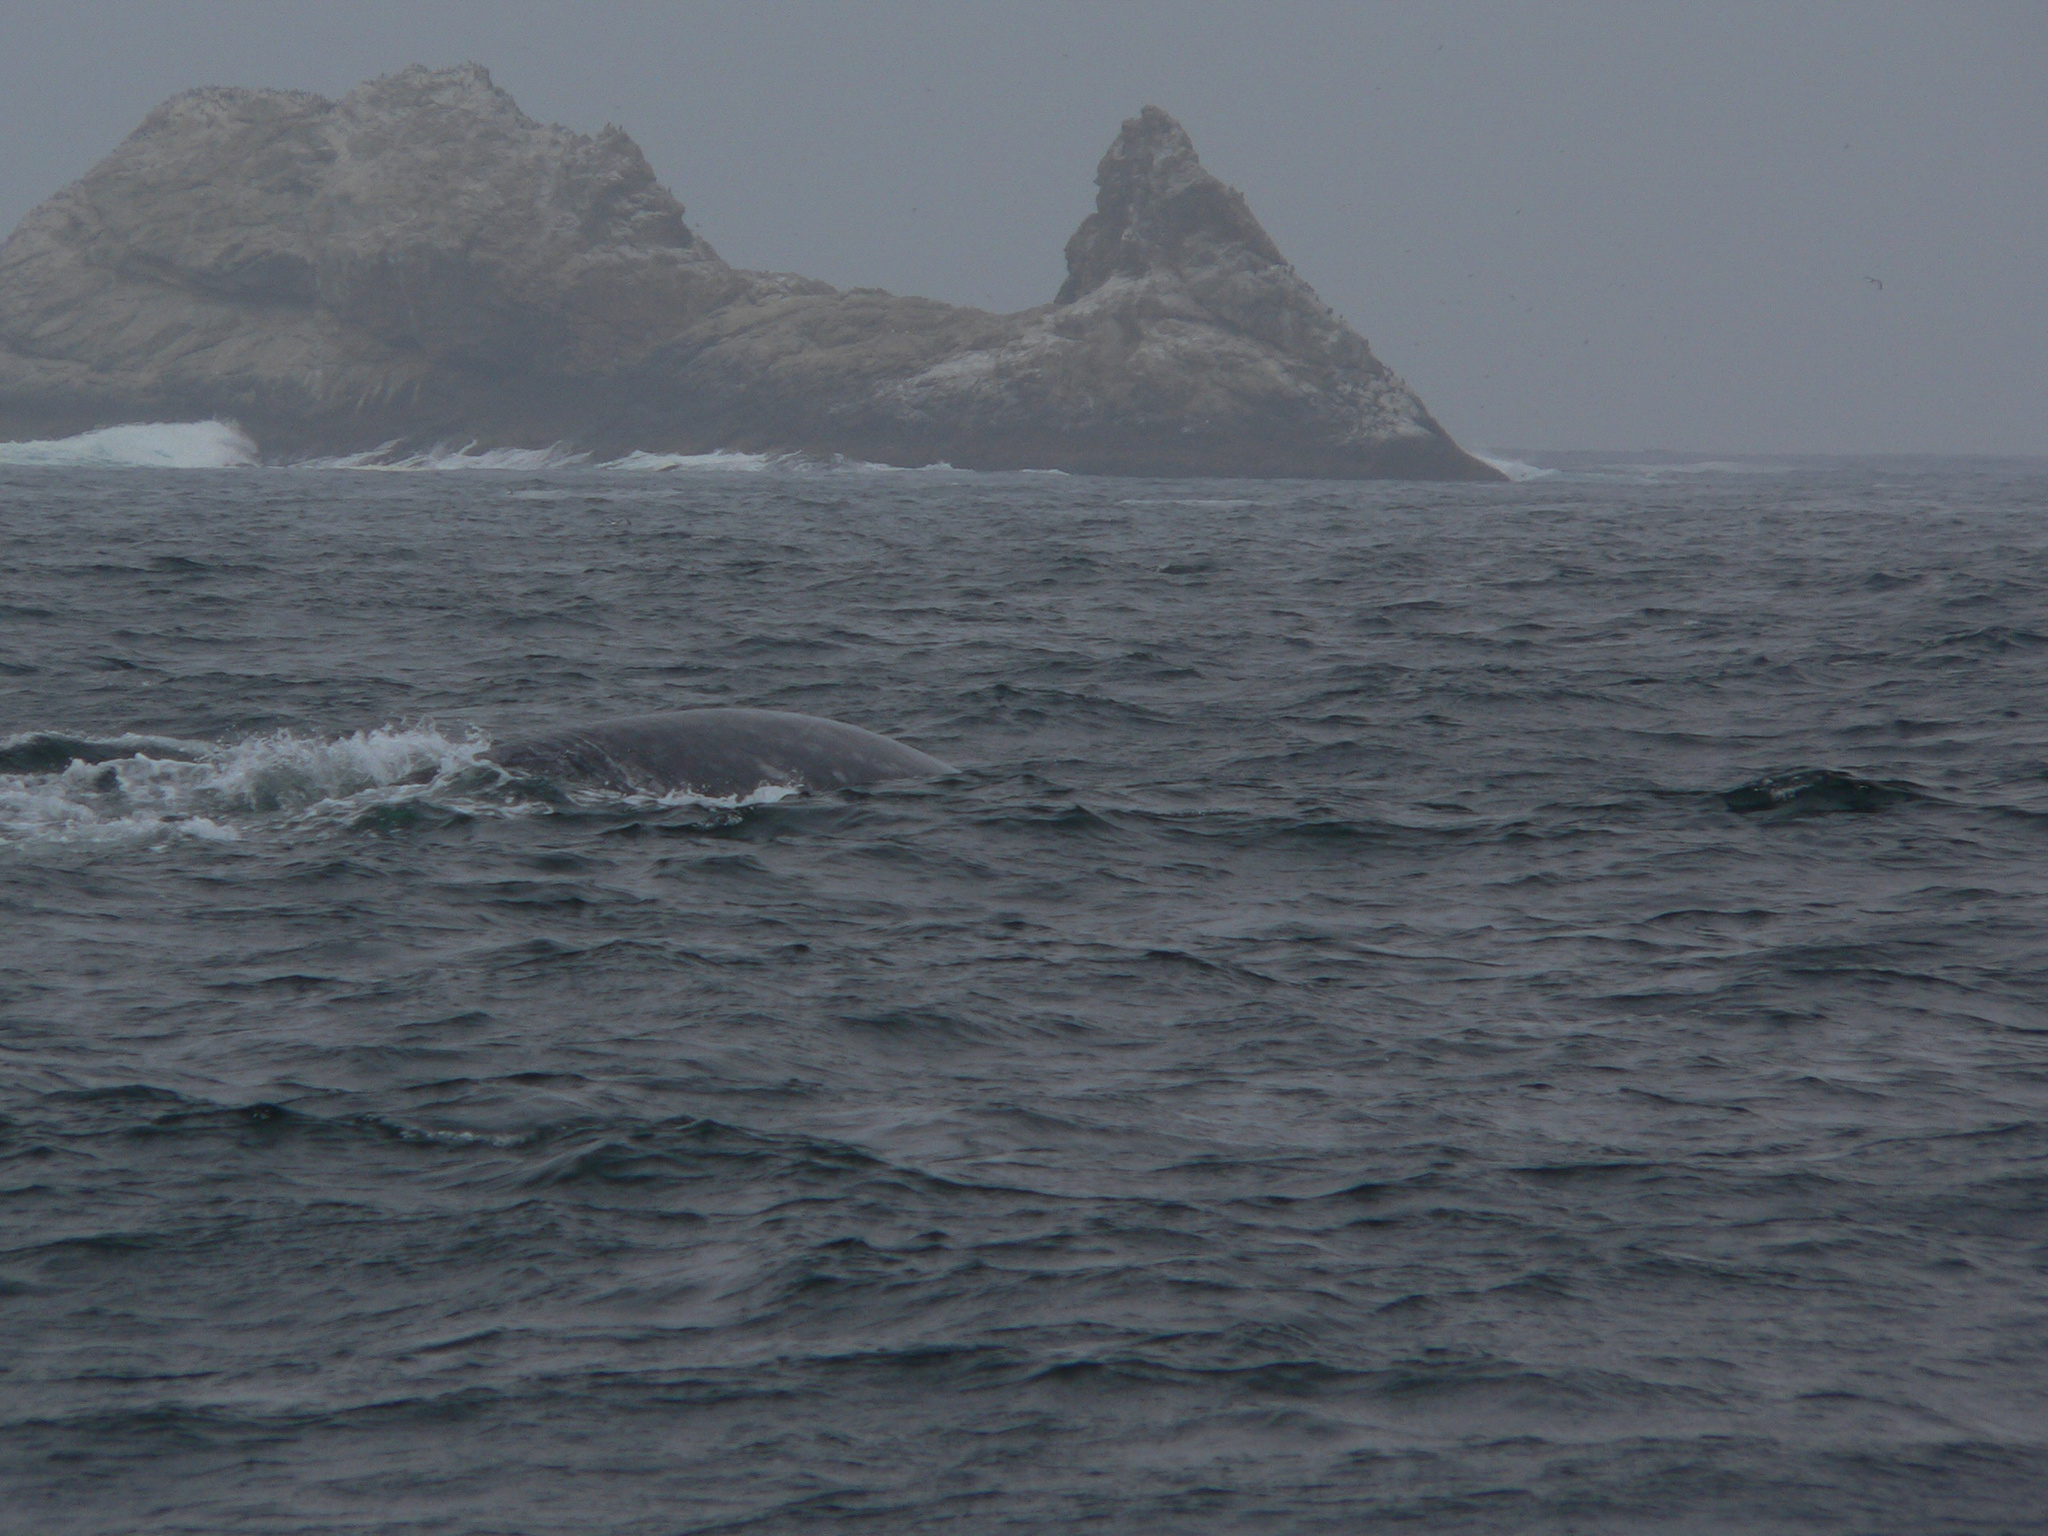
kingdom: Animalia
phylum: Chordata
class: Mammalia
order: Cetacea
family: Eschrichtiidae
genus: Eschrichtius
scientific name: Eschrichtius robustus
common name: Gray whale
